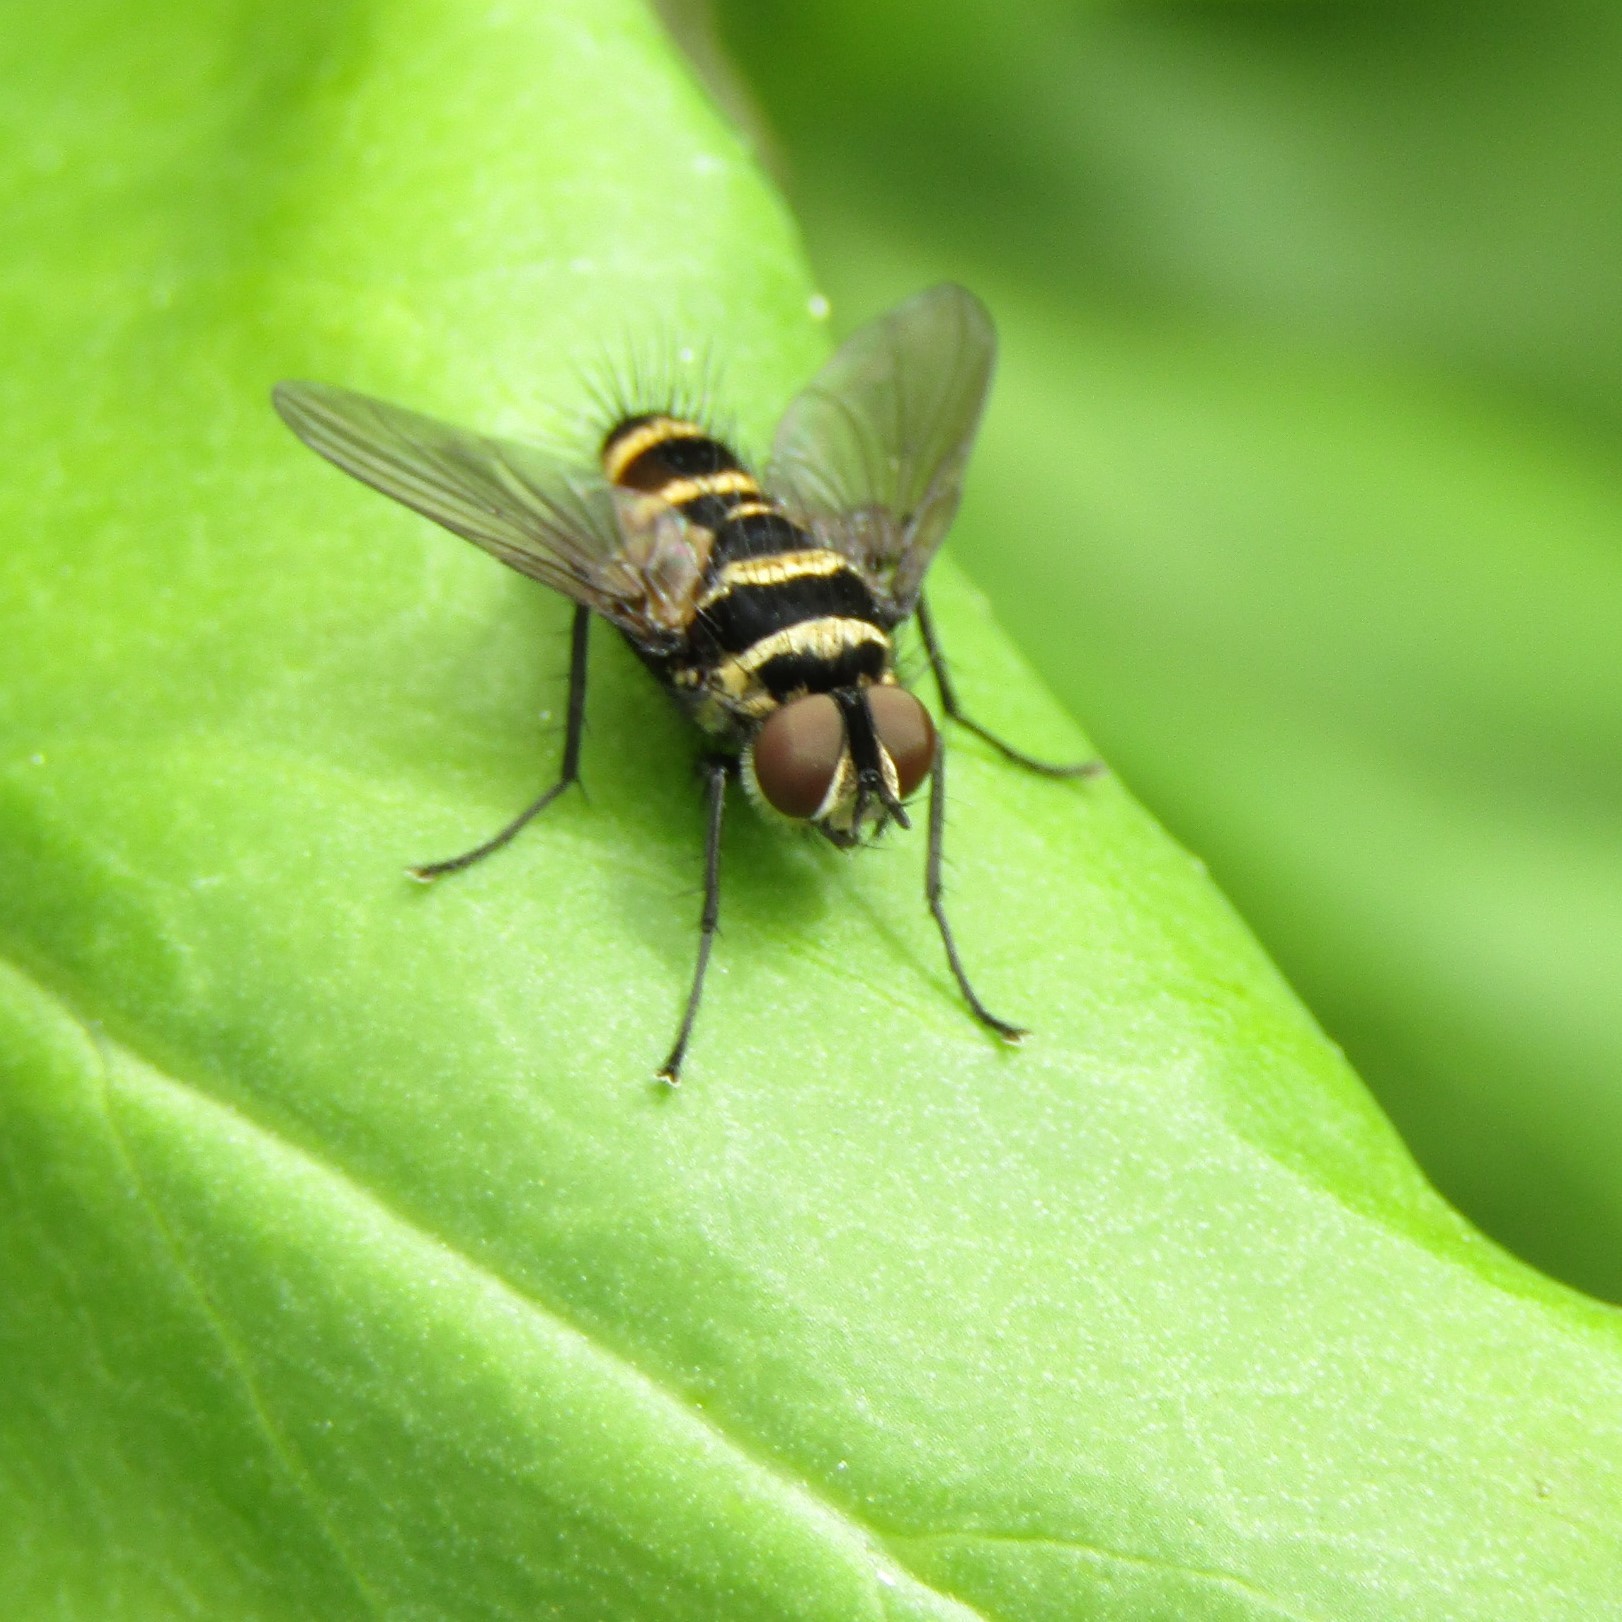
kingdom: Animalia
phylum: Arthropoda
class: Insecta
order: Diptera
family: Tachinidae
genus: Trigonospila
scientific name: Trigonospila brevifacies
